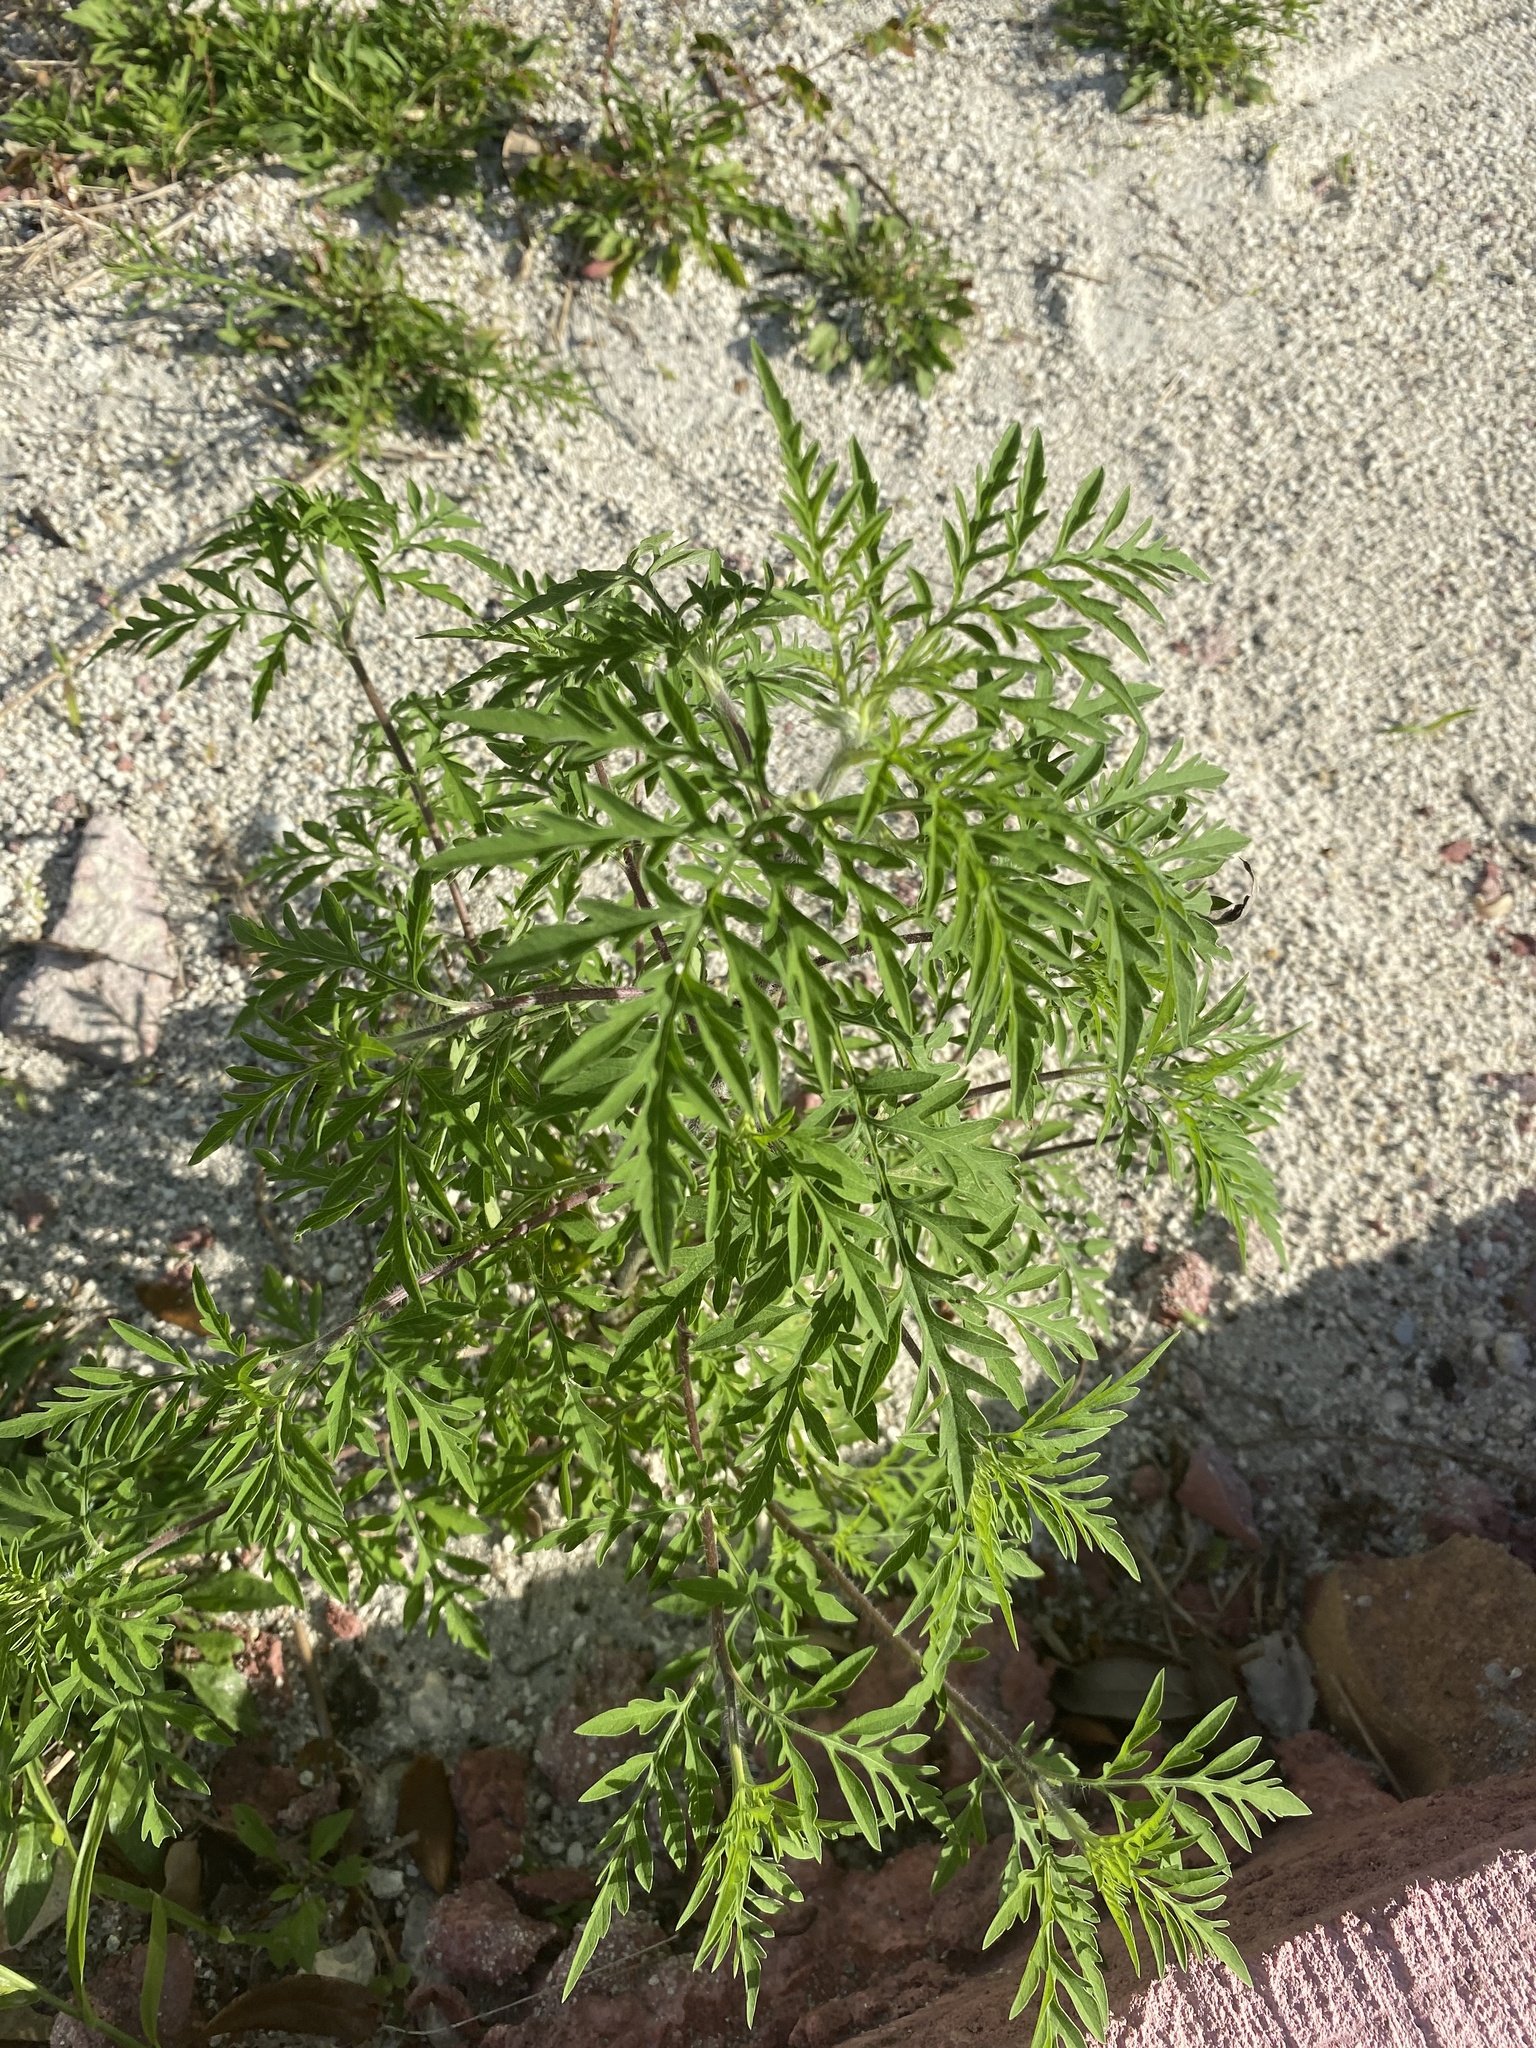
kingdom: Plantae
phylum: Tracheophyta
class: Magnoliopsida
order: Asterales
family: Asteraceae
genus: Ambrosia
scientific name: Ambrosia artemisiifolia
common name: Annual ragweed
